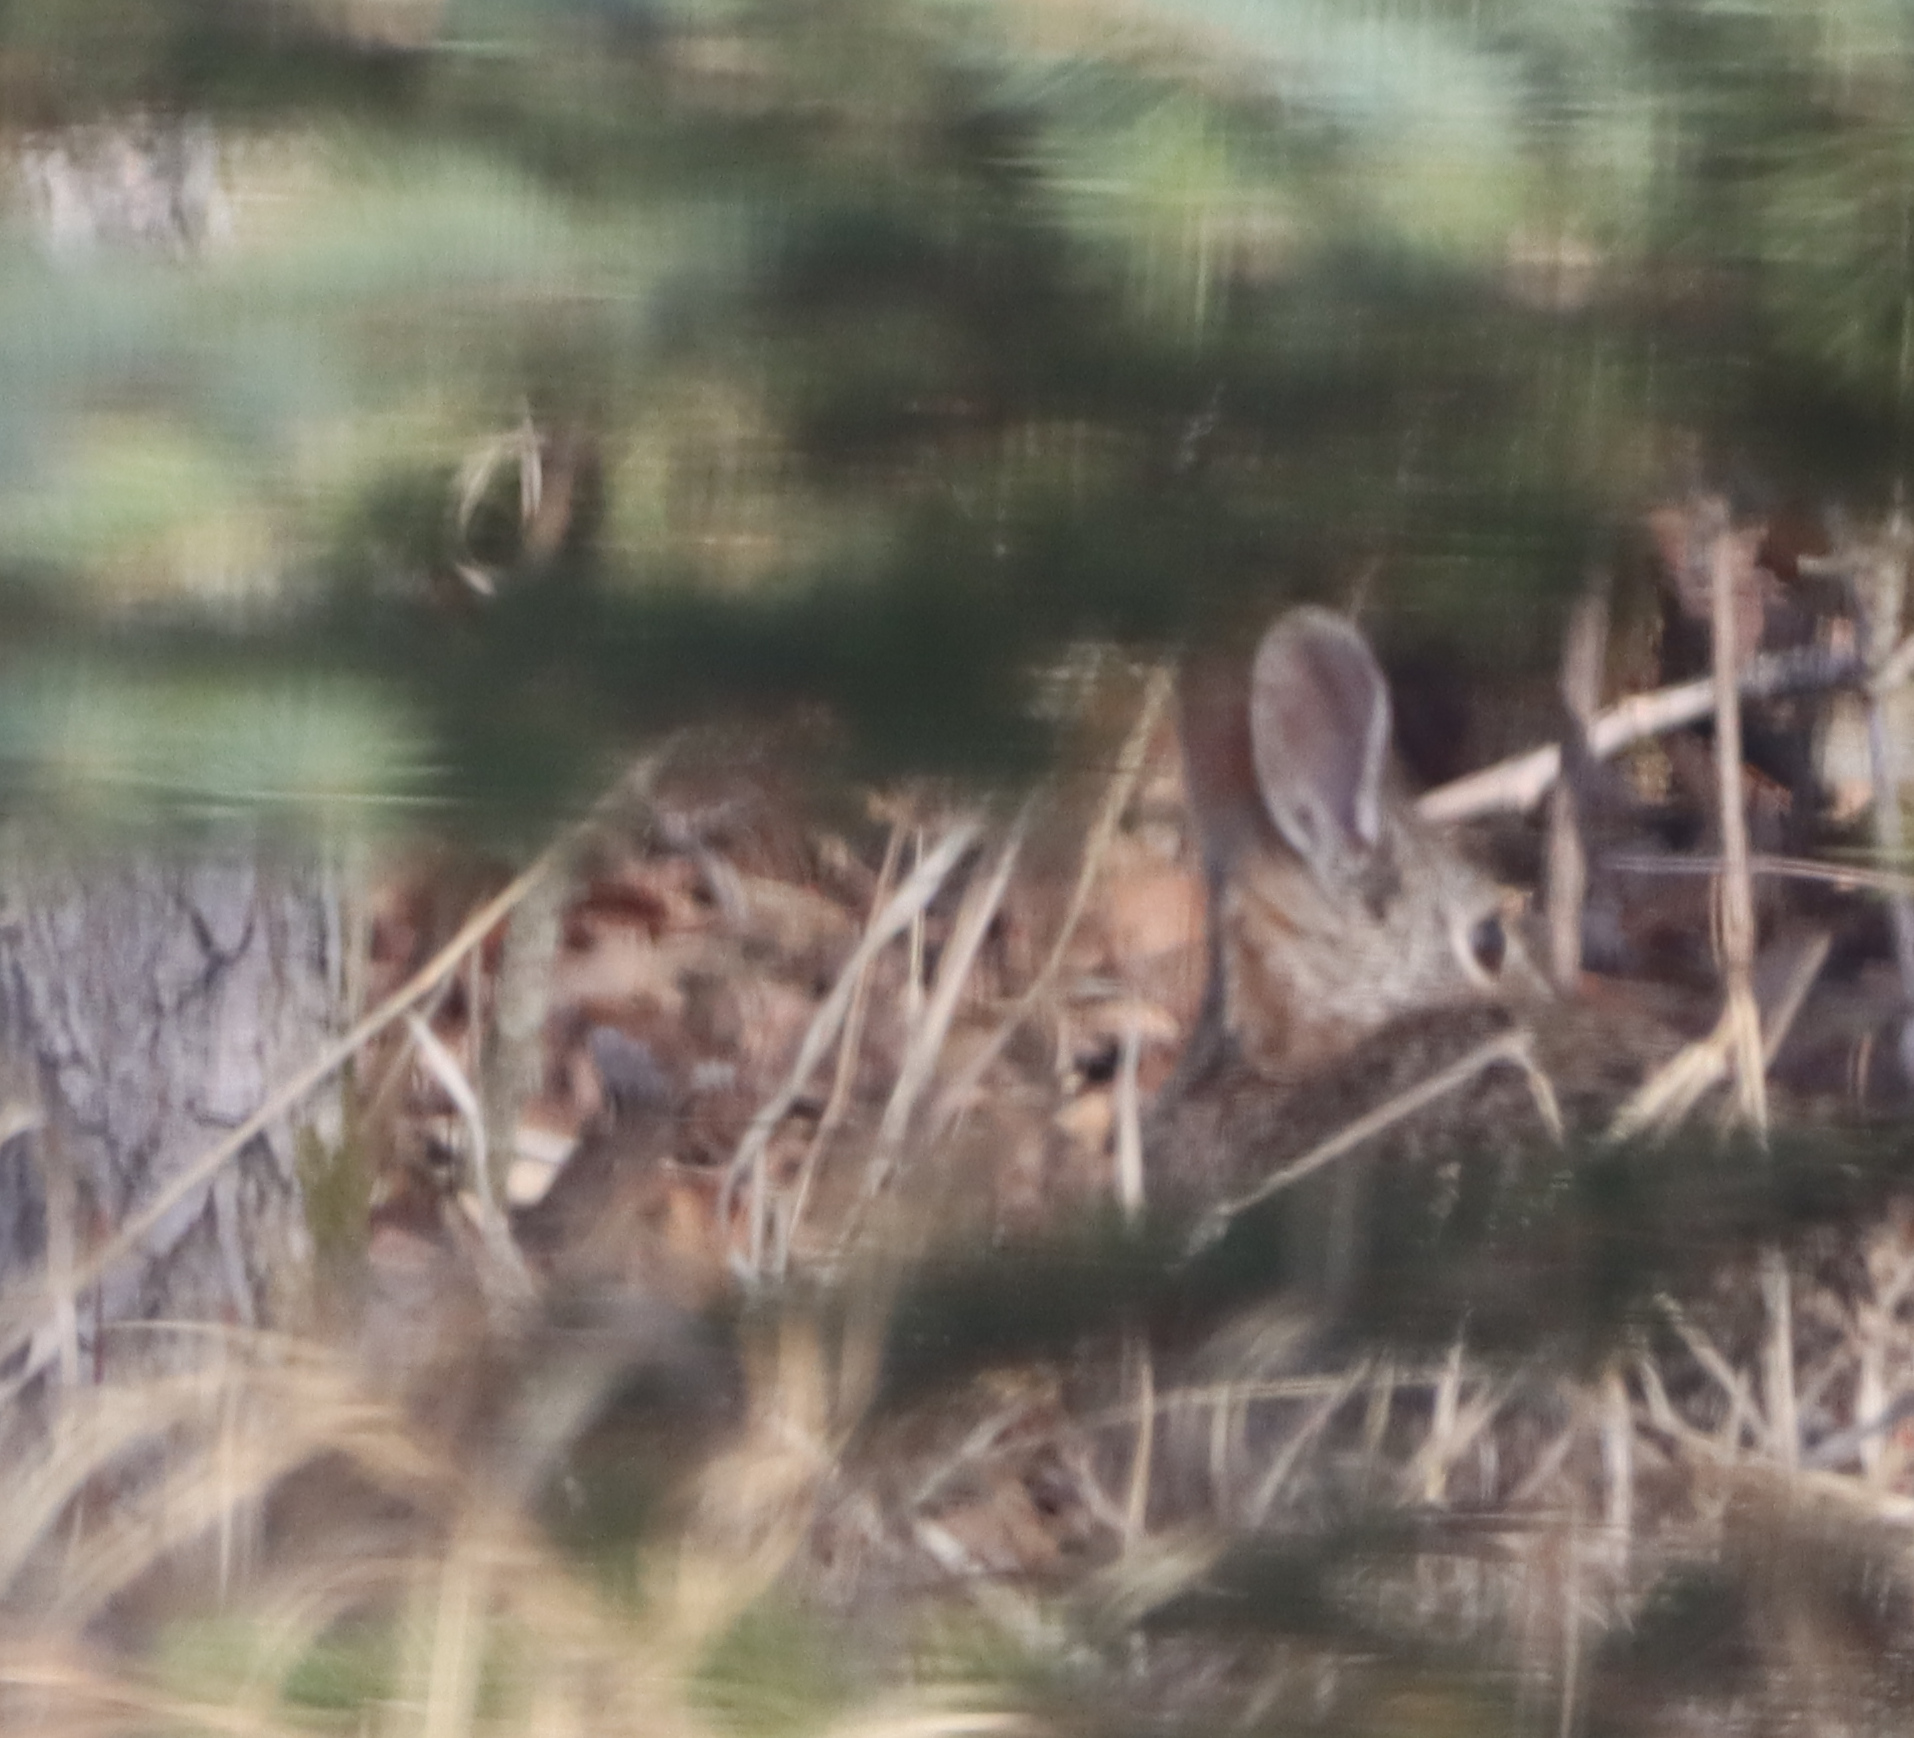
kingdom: Animalia
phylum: Chordata
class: Mammalia
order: Lagomorpha
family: Leporidae
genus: Sylvilagus
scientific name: Sylvilagus floridanus
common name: Eastern cottontail
